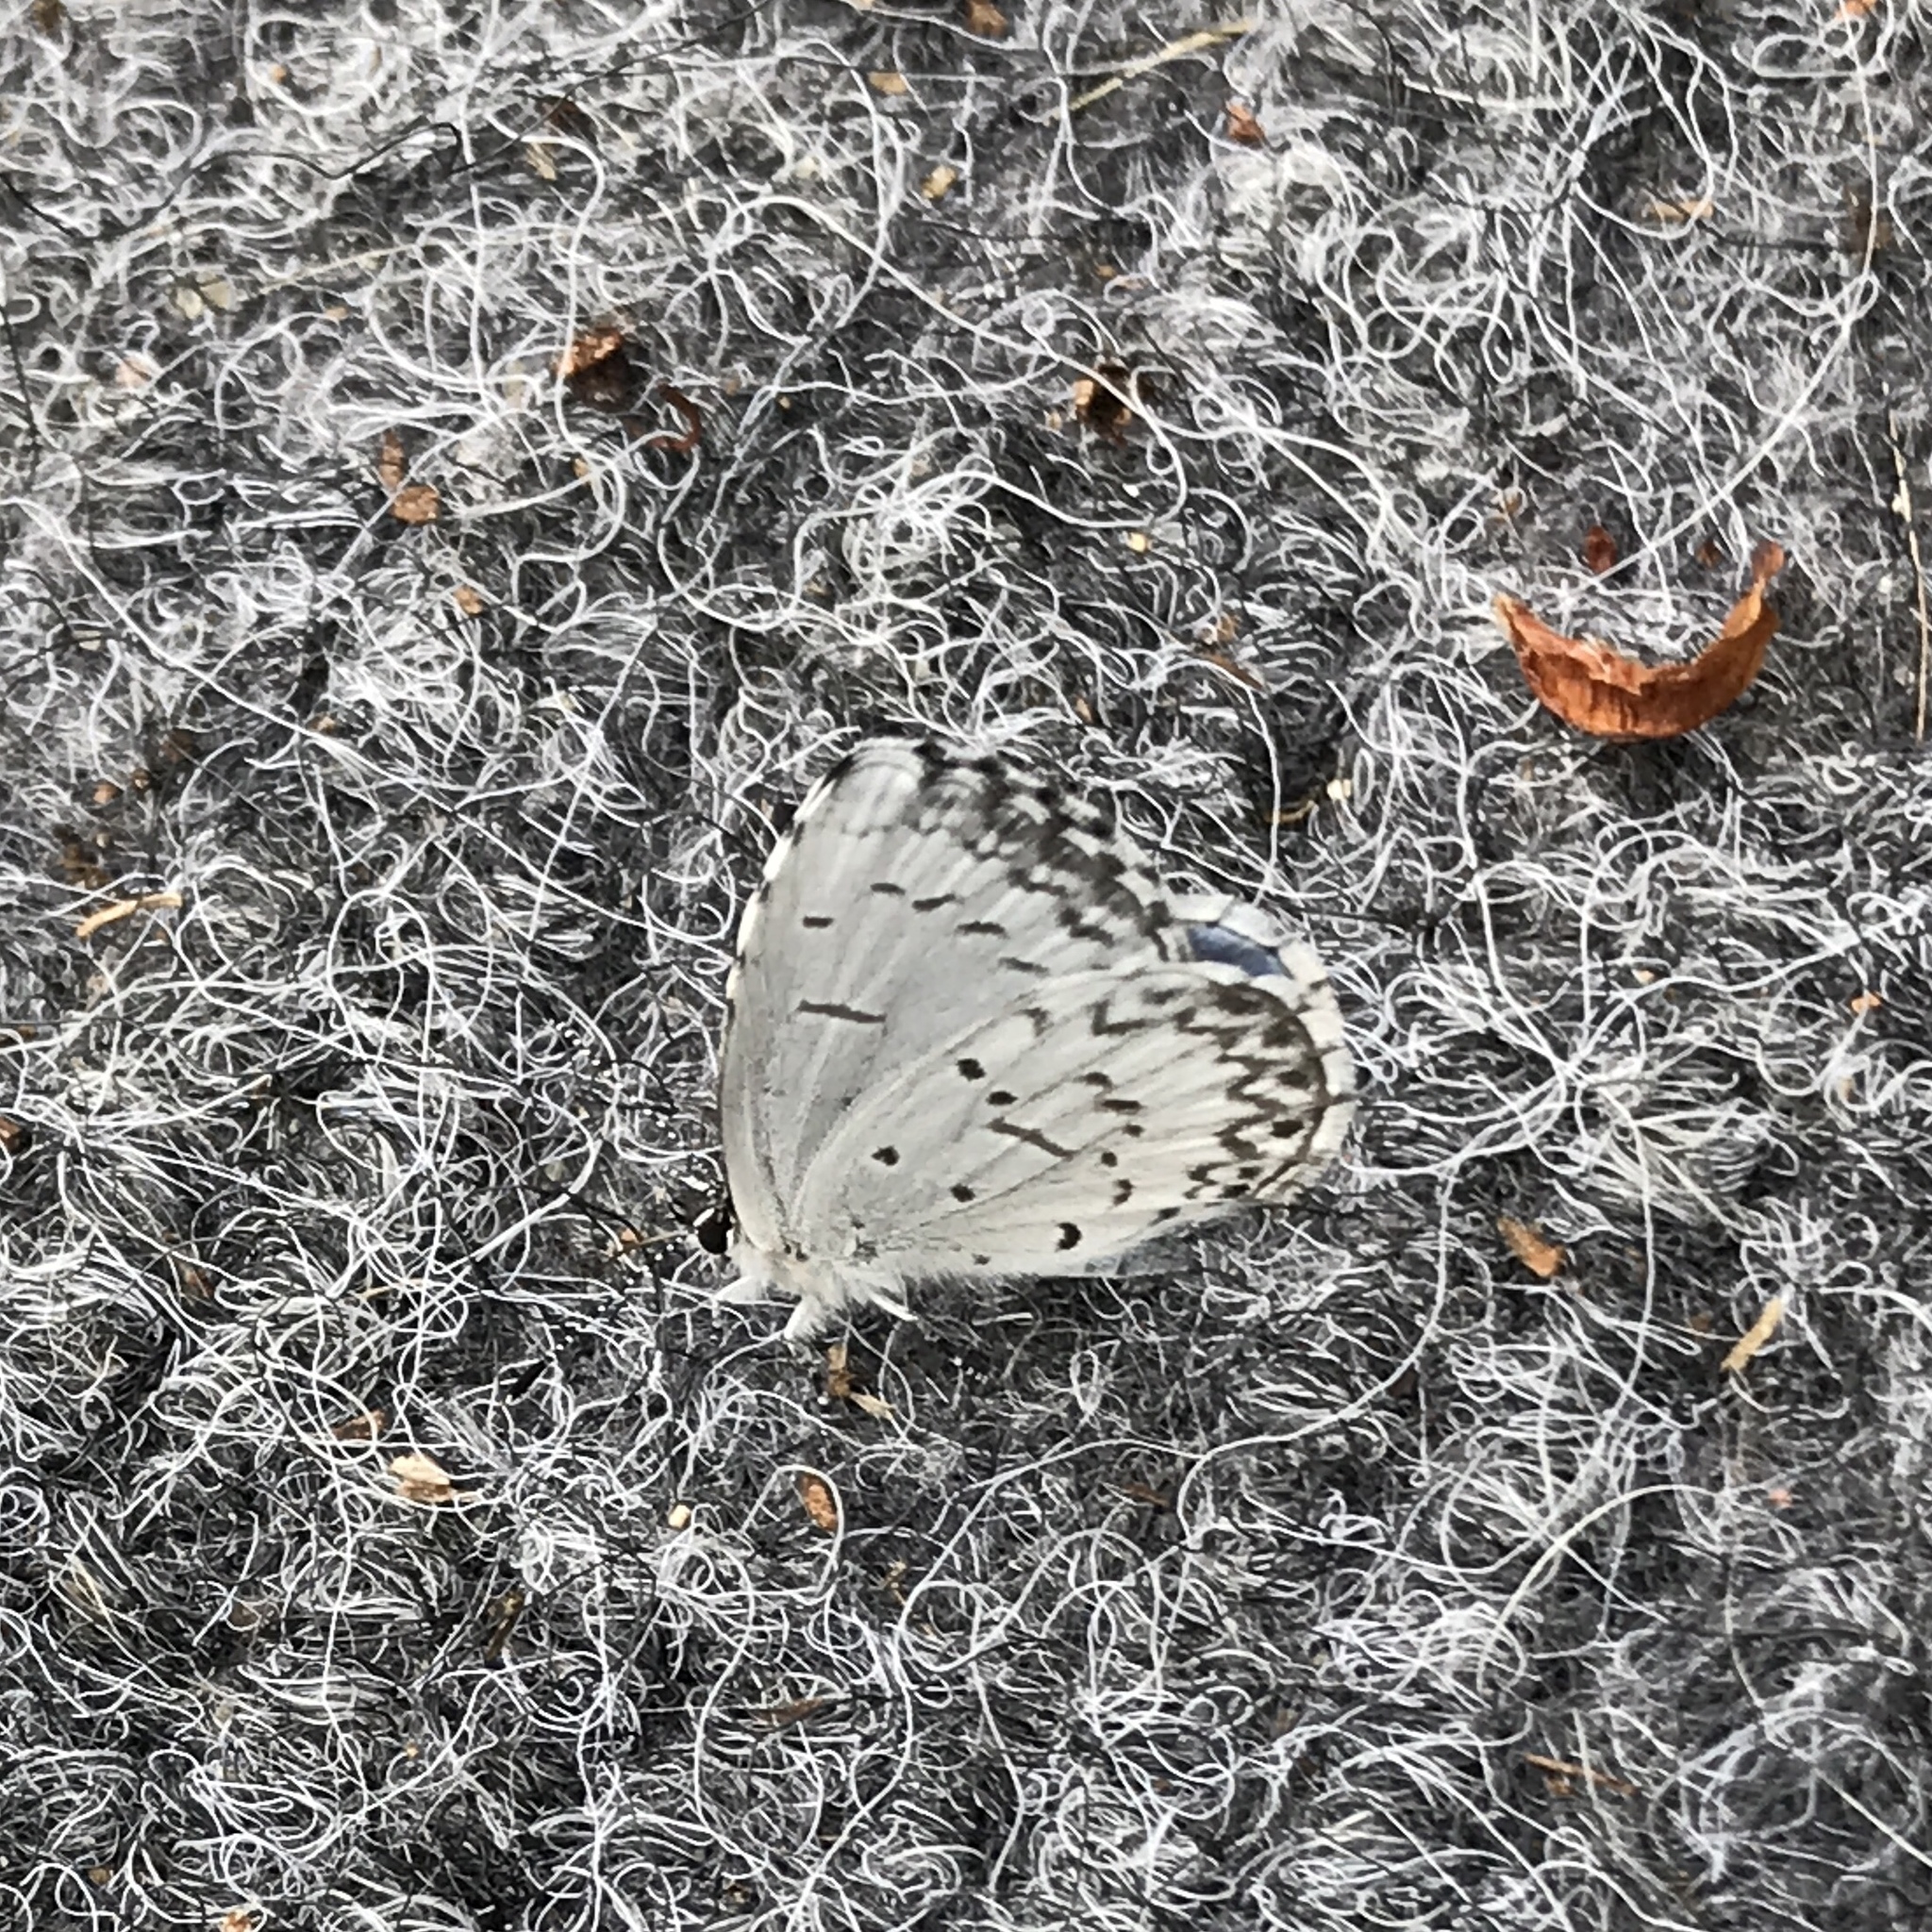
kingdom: Animalia
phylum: Arthropoda
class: Insecta
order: Lepidoptera
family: Lycaenidae
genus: Celastrina
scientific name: Celastrina lucia
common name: Lucia azure
